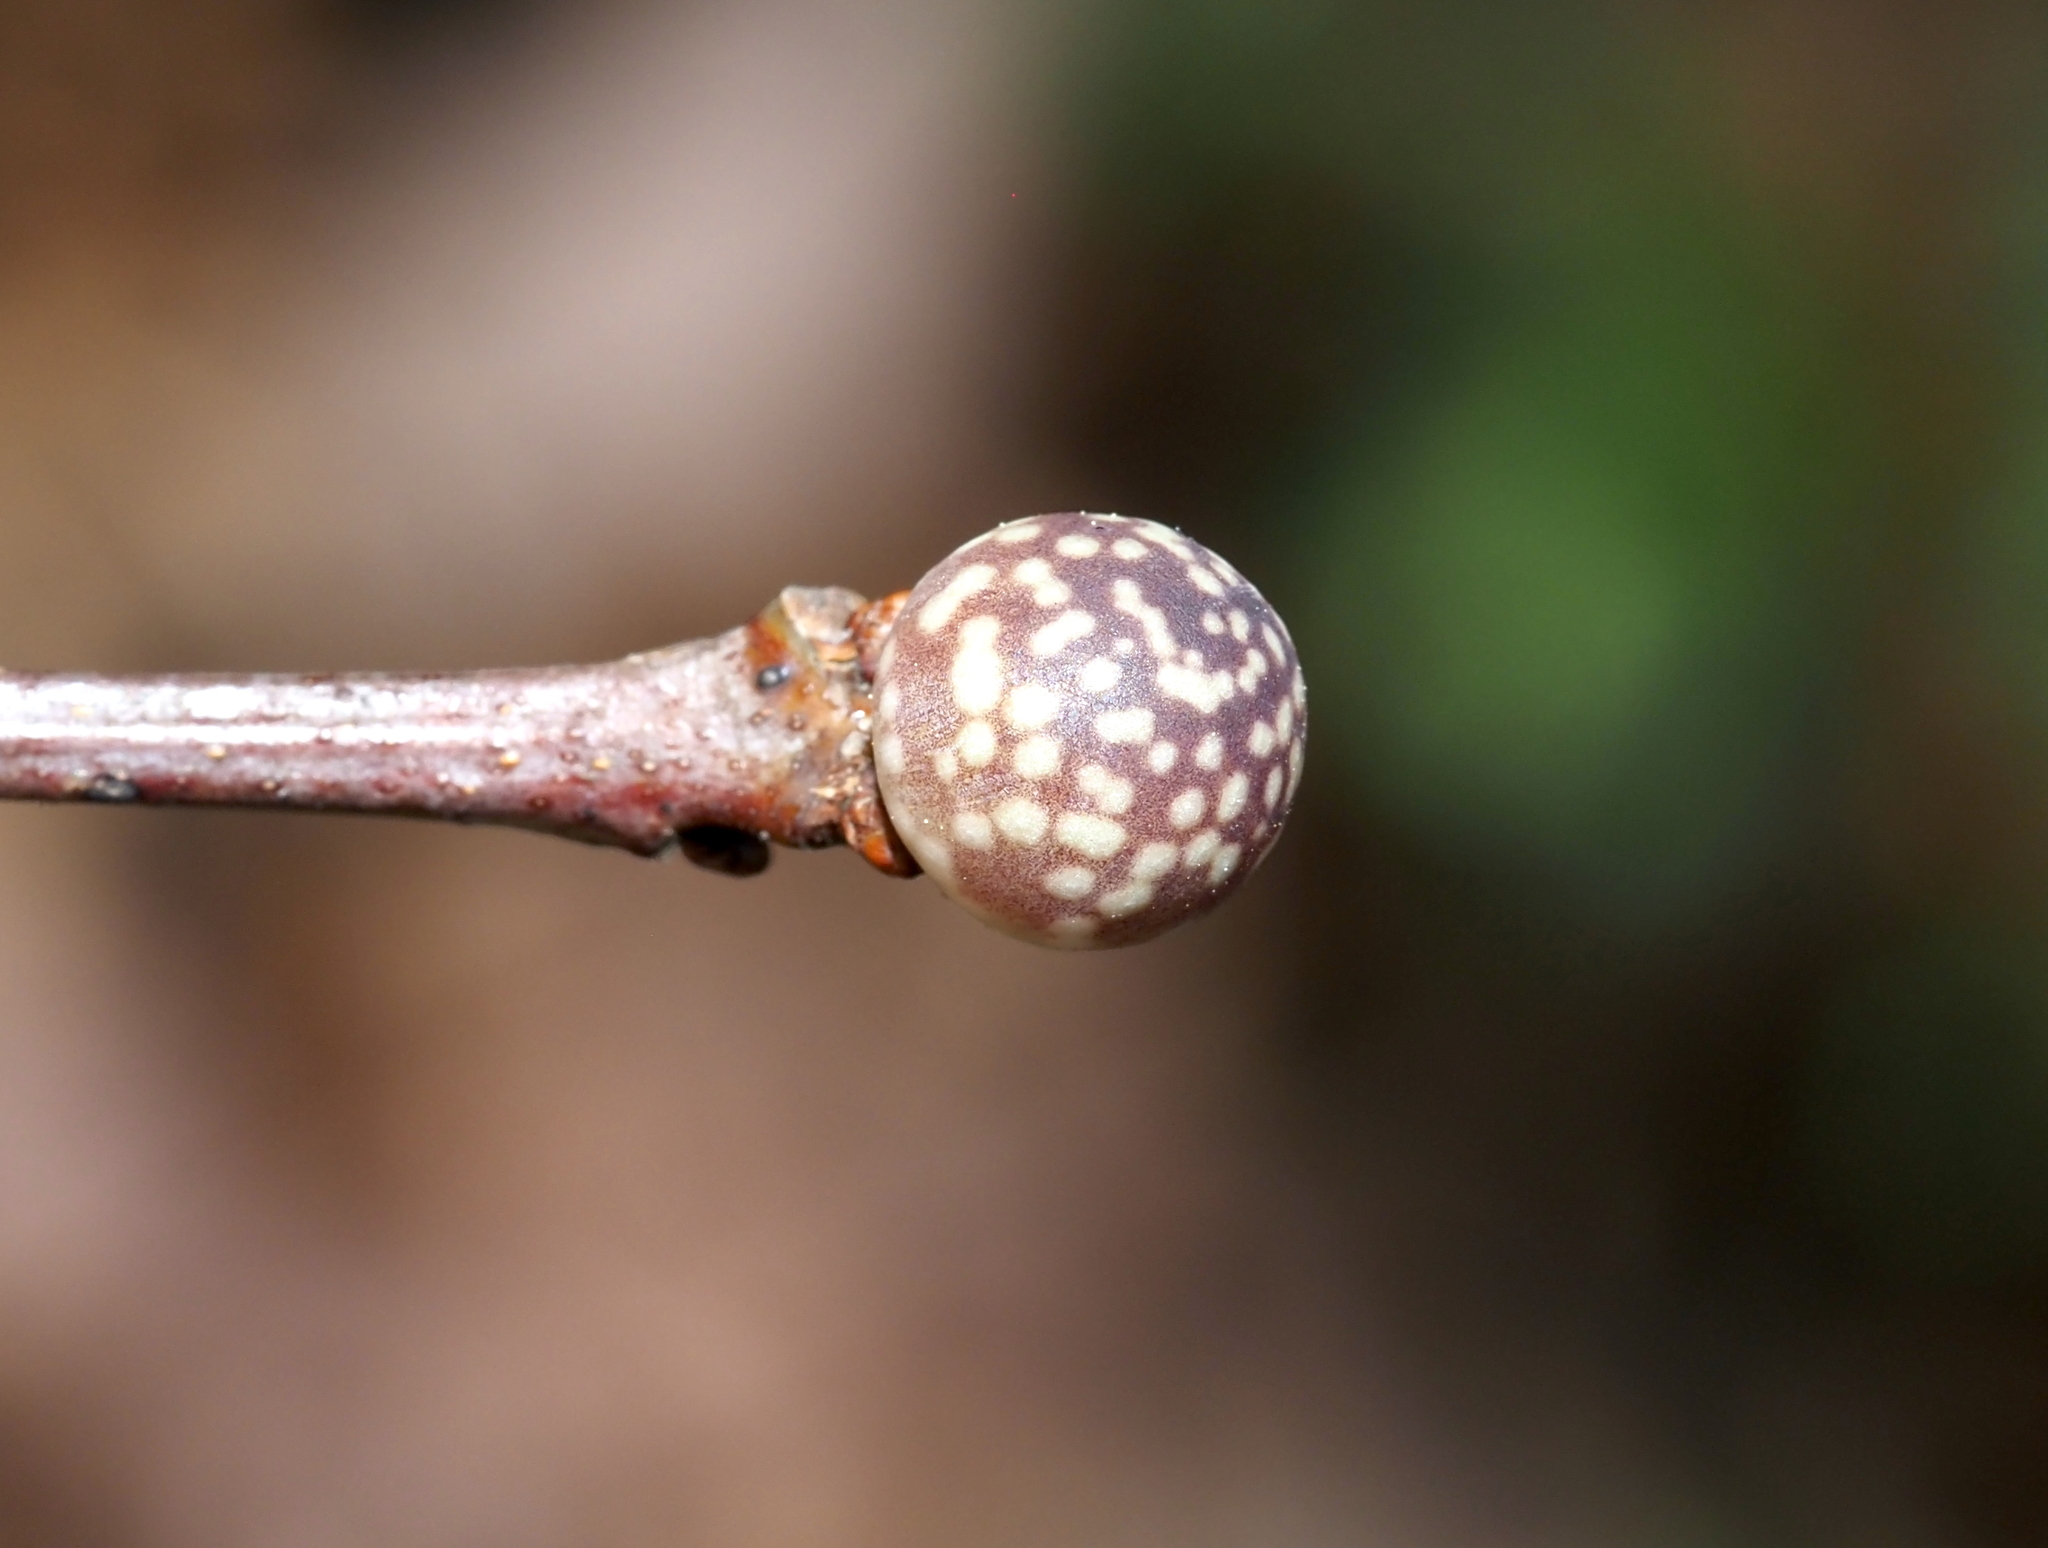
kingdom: Animalia
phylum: Arthropoda
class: Insecta
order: Hymenoptera
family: Cynipidae
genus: Andricus
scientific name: Andricus
